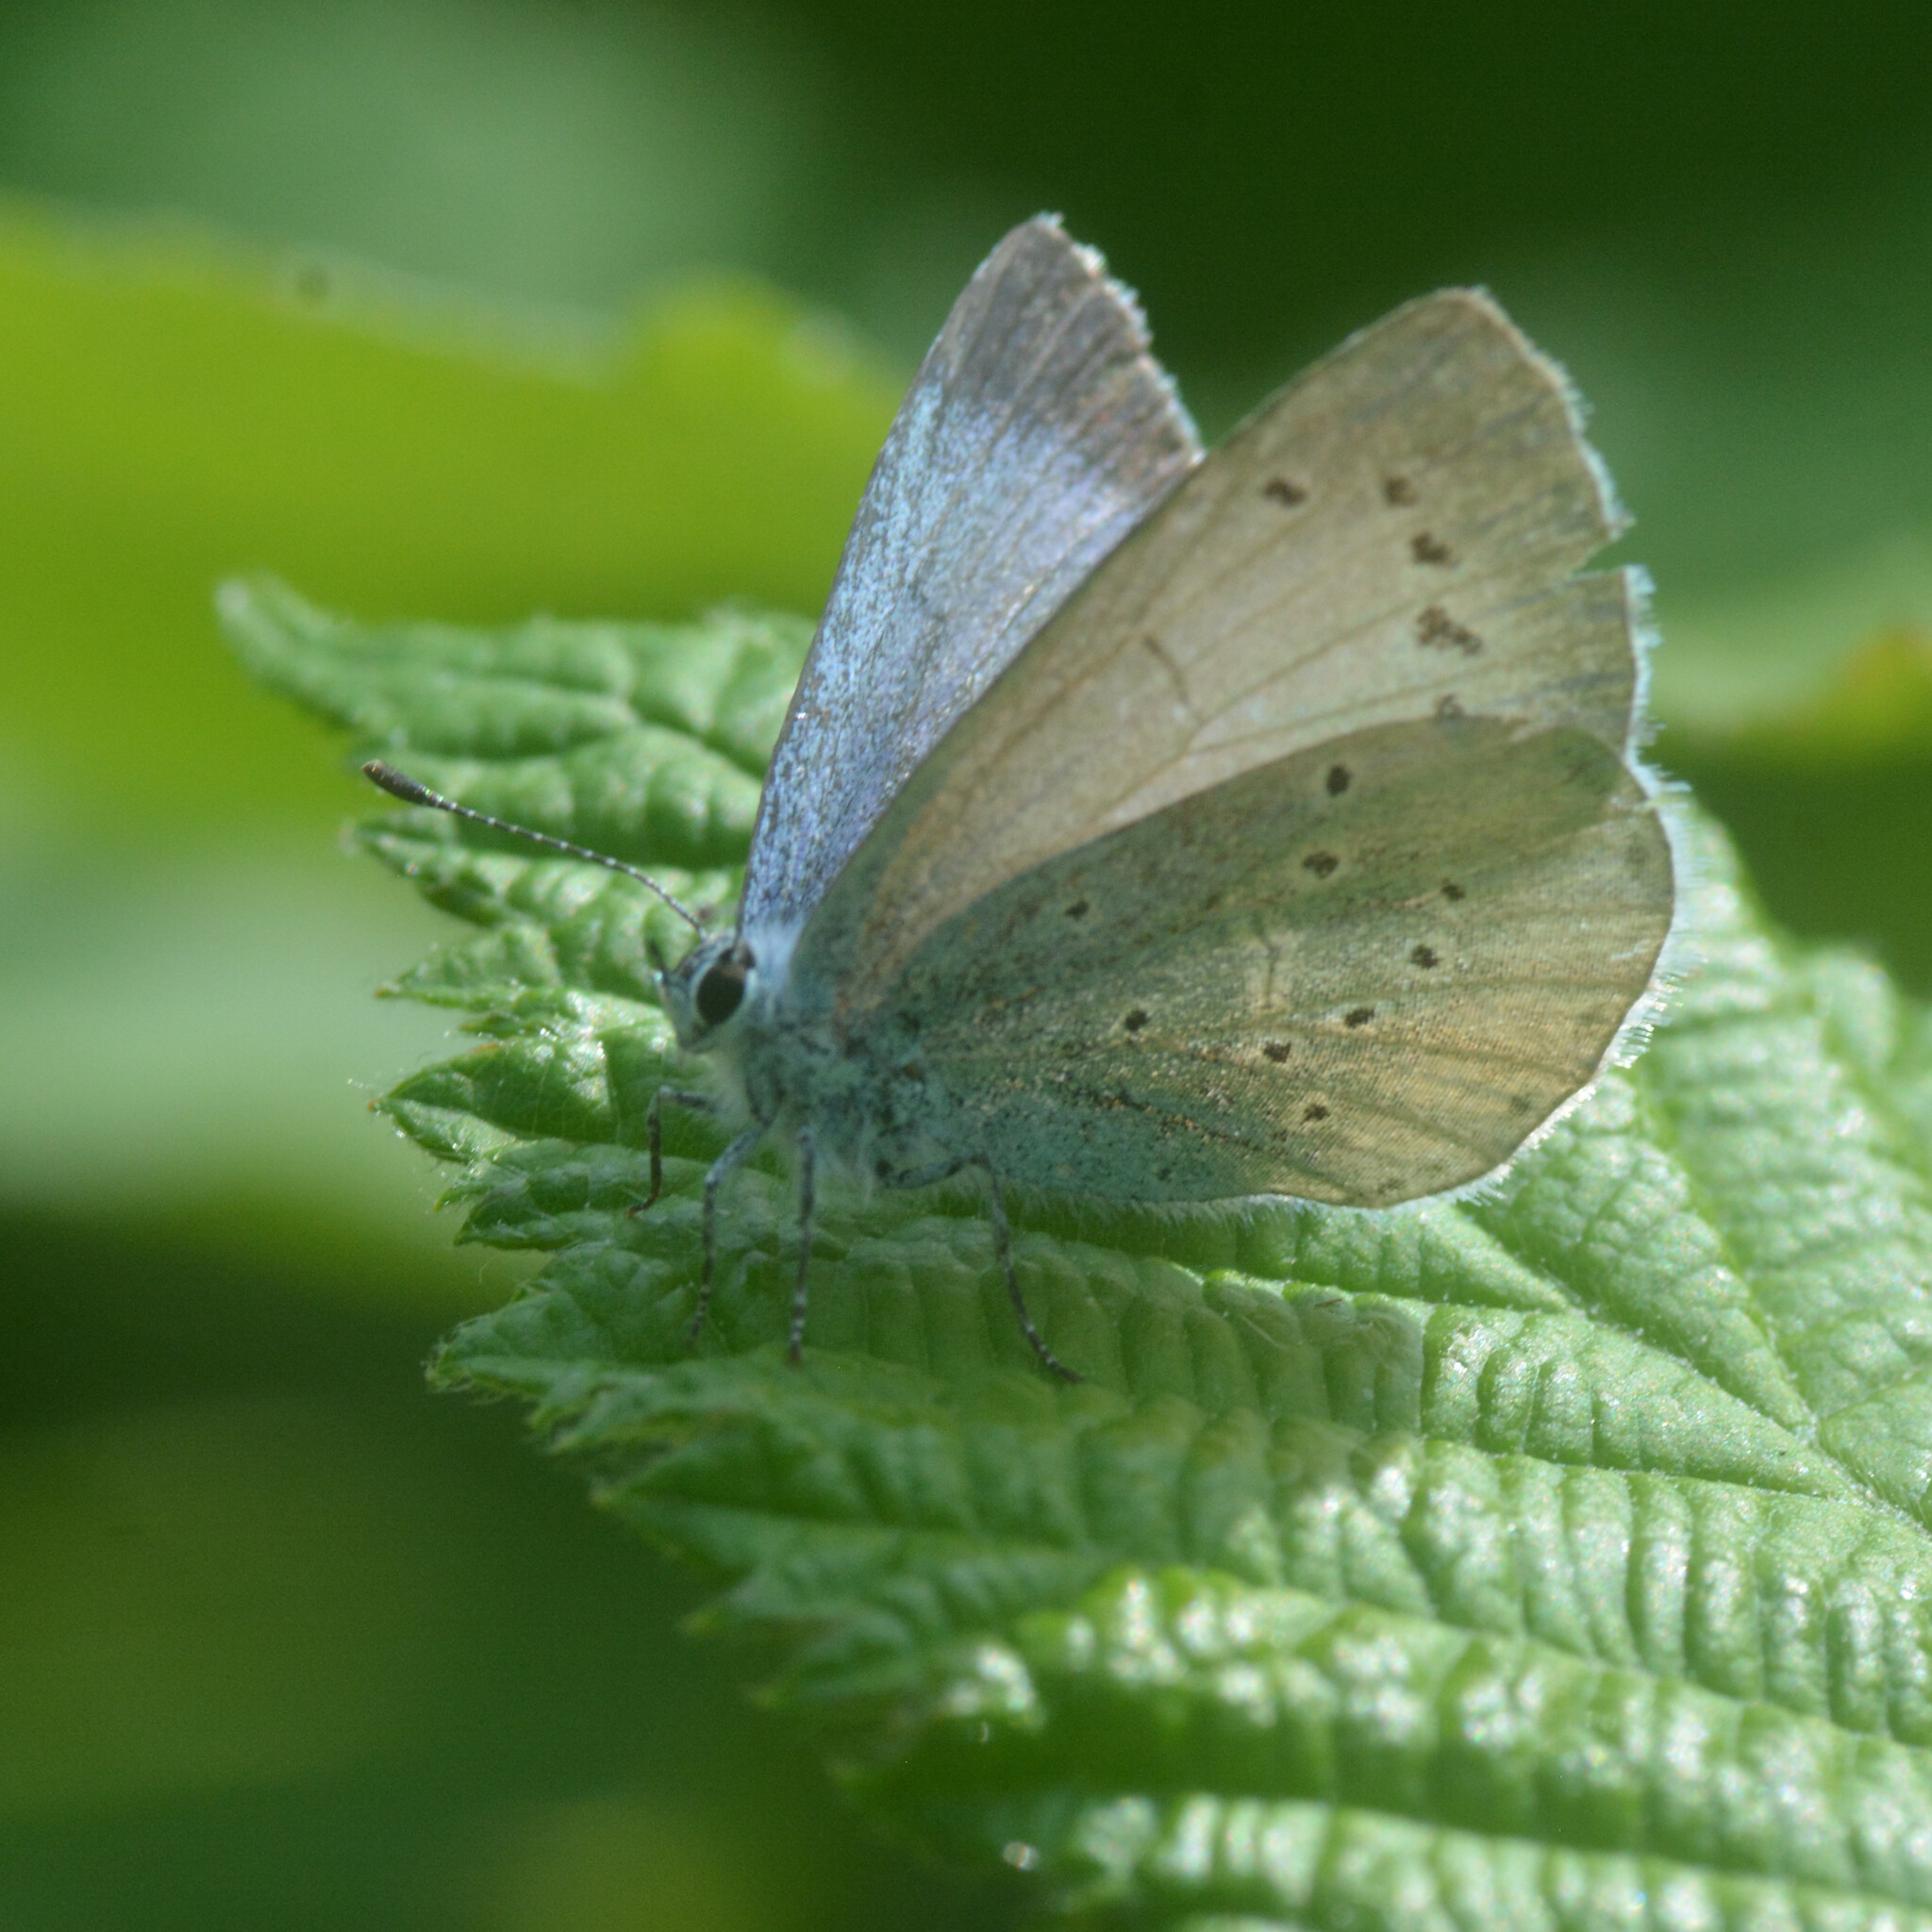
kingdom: Animalia
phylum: Arthropoda
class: Insecta
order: Lepidoptera
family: Lycaenidae
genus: Celastrina
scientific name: Celastrina argiolus
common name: Holly blue
